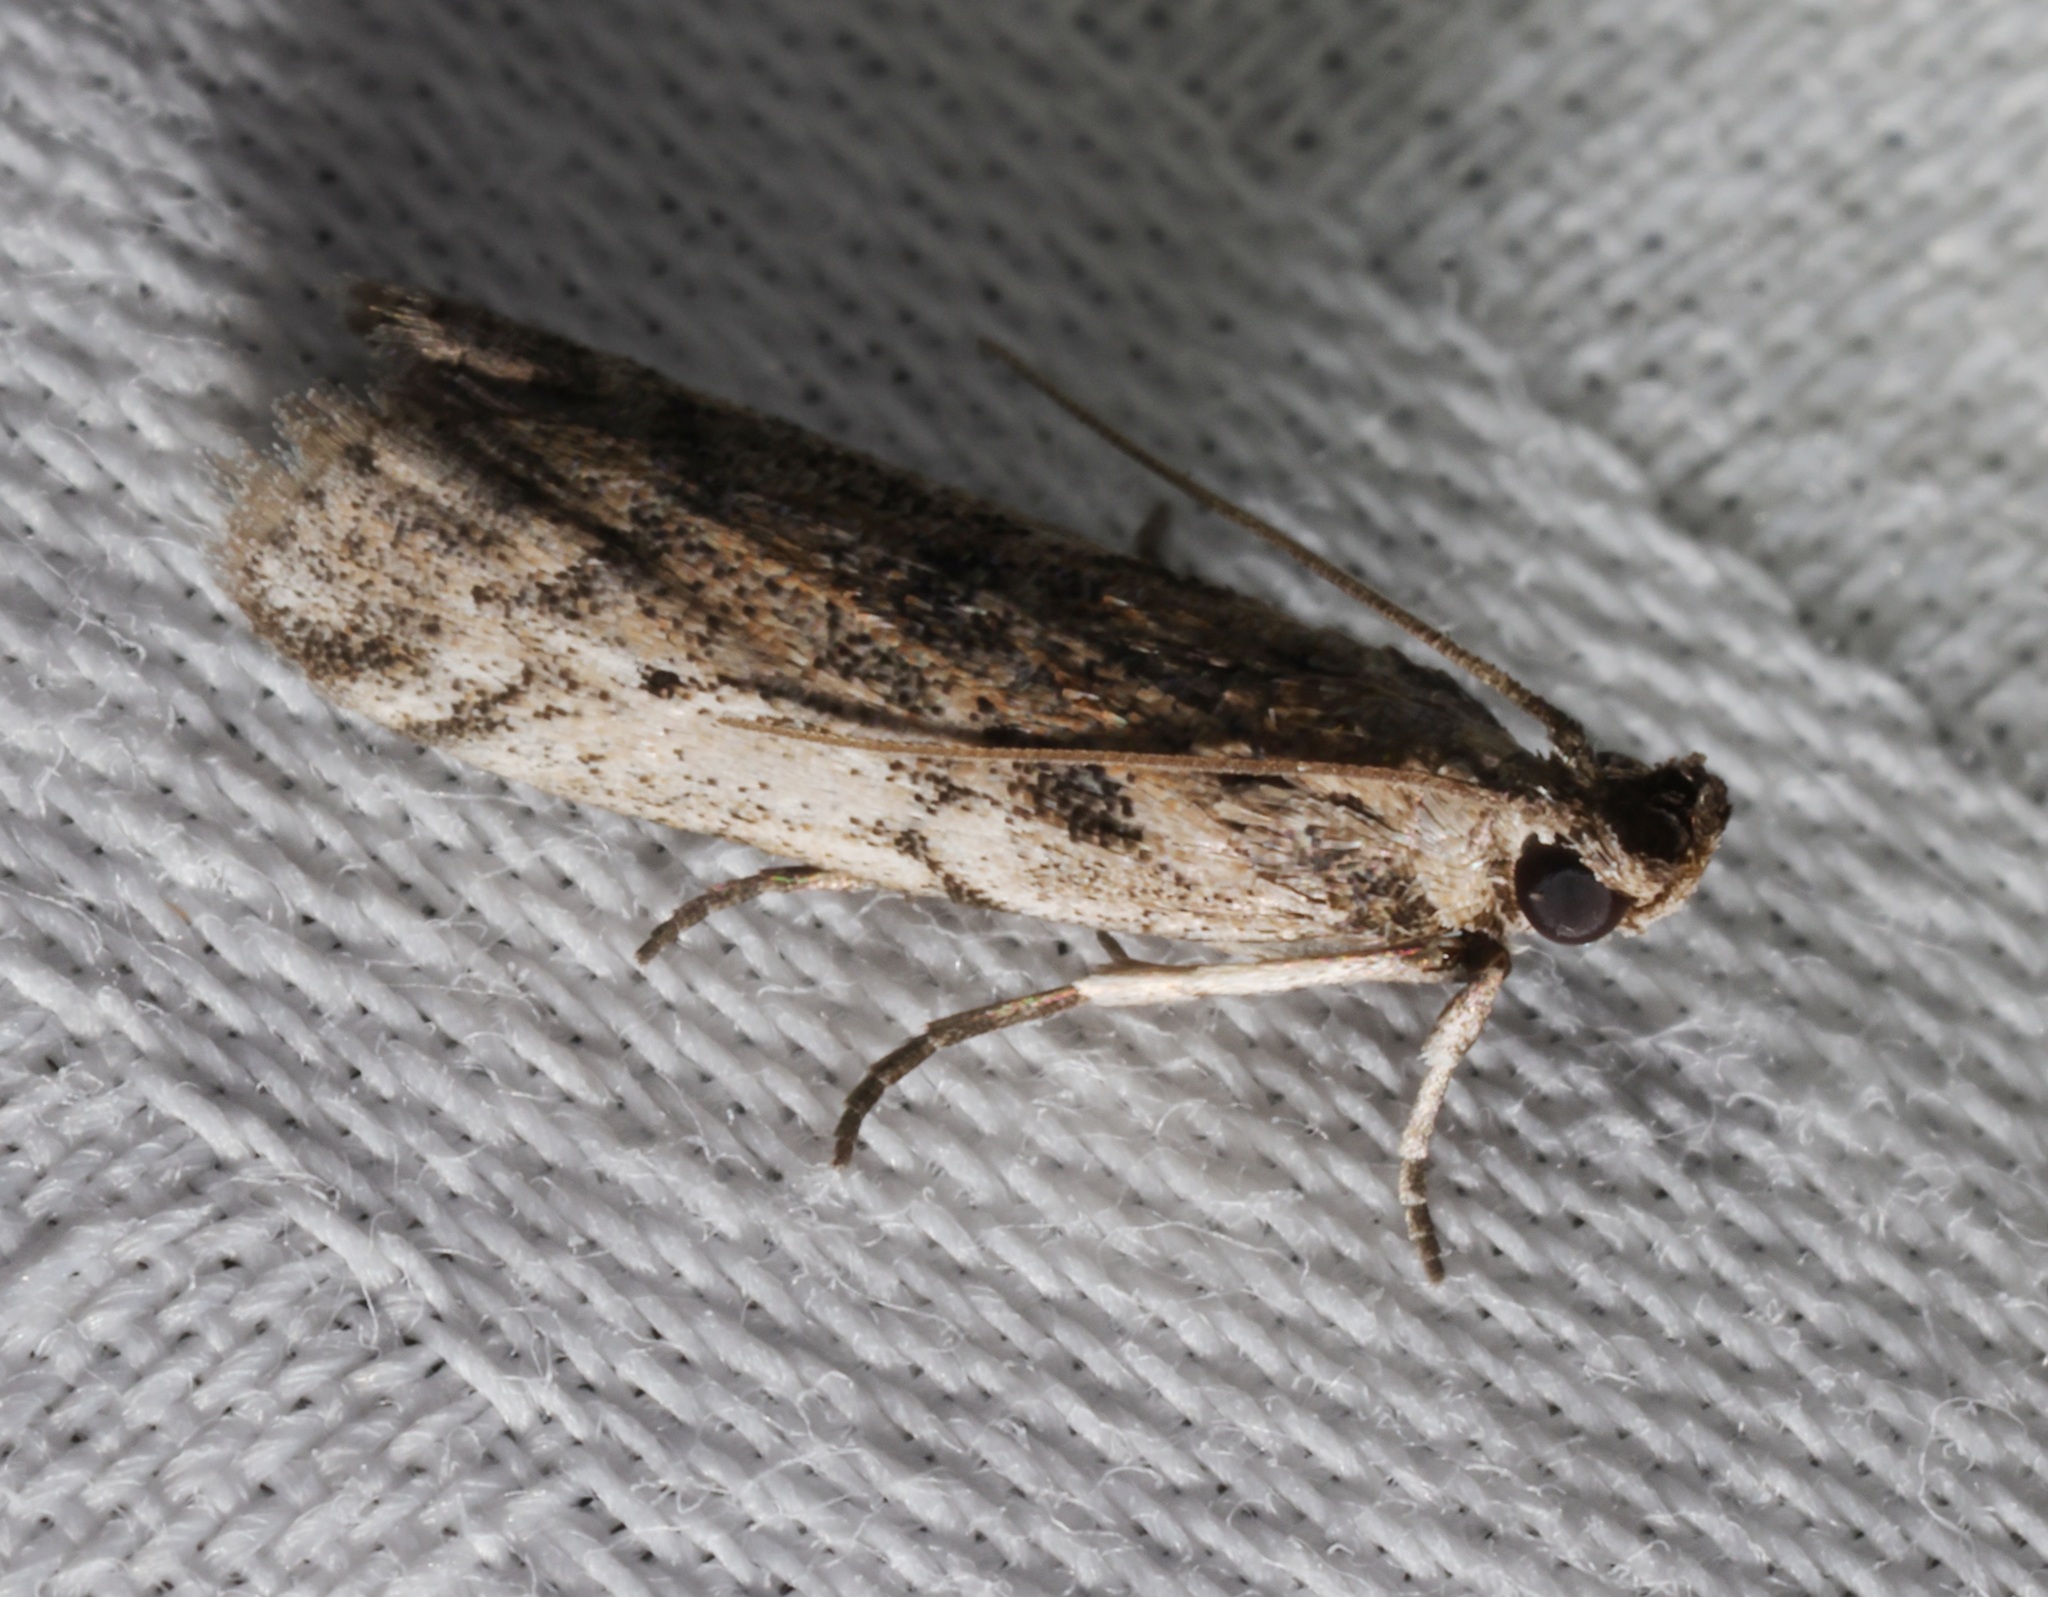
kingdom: Animalia
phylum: Arthropoda
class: Insecta
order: Lepidoptera
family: Pyralidae
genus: Vinicia
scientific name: Vinicia
